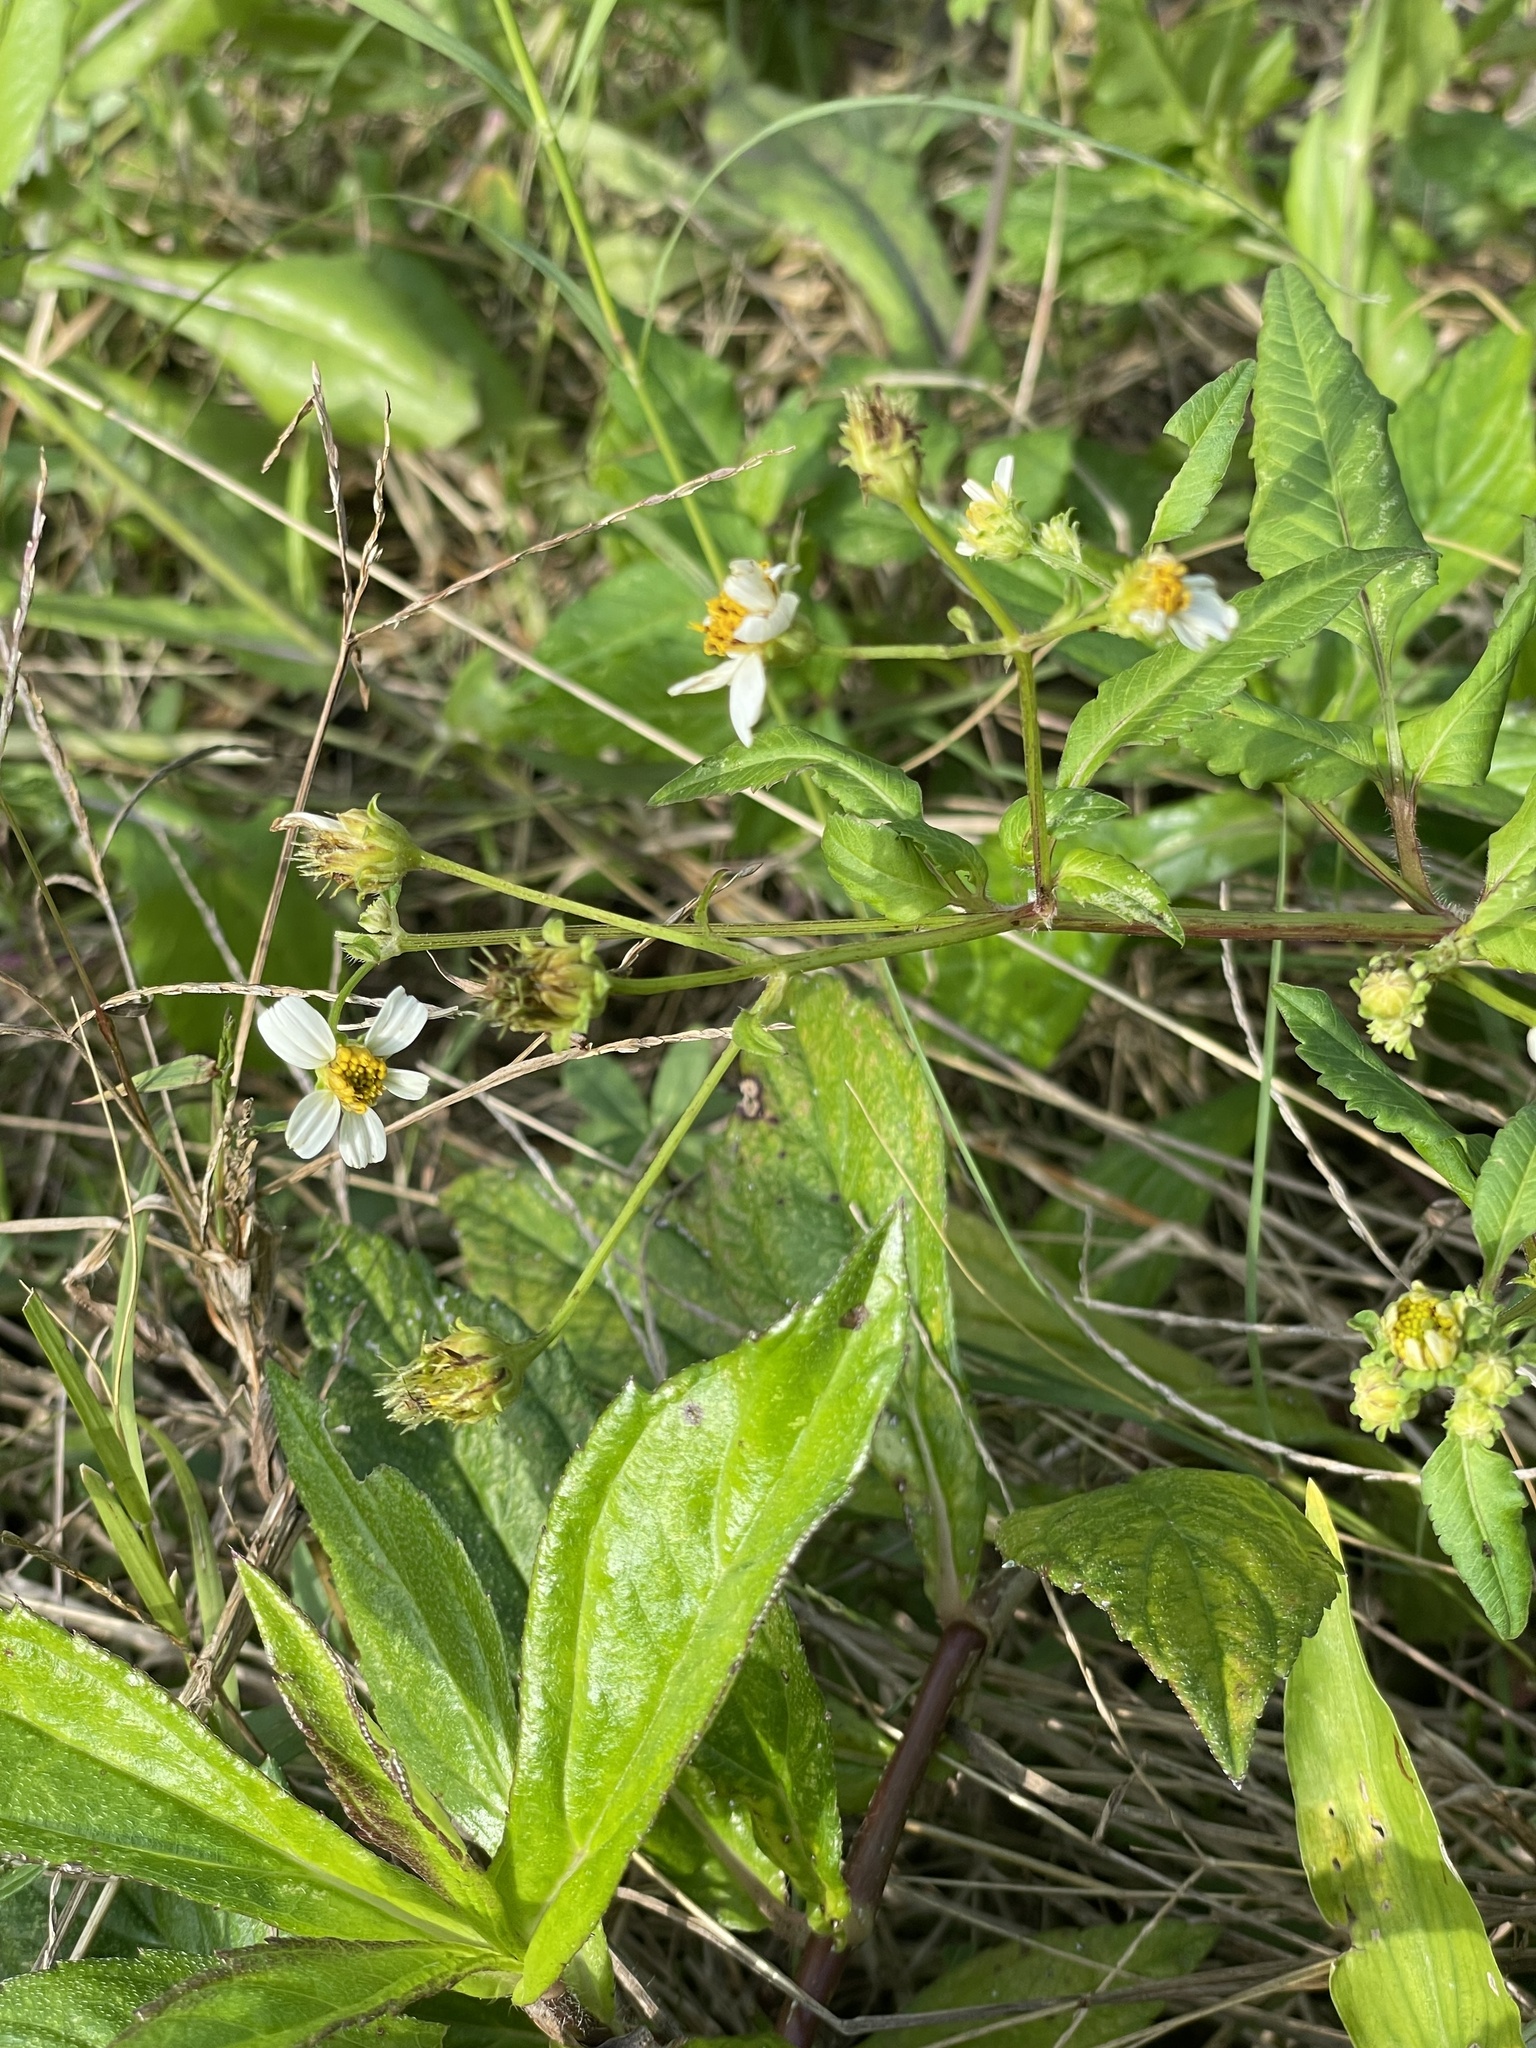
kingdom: Plantae
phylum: Tracheophyta
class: Magnoliopsida
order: Asterales
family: Asteraceae
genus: Bidens
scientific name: Bidens alba
